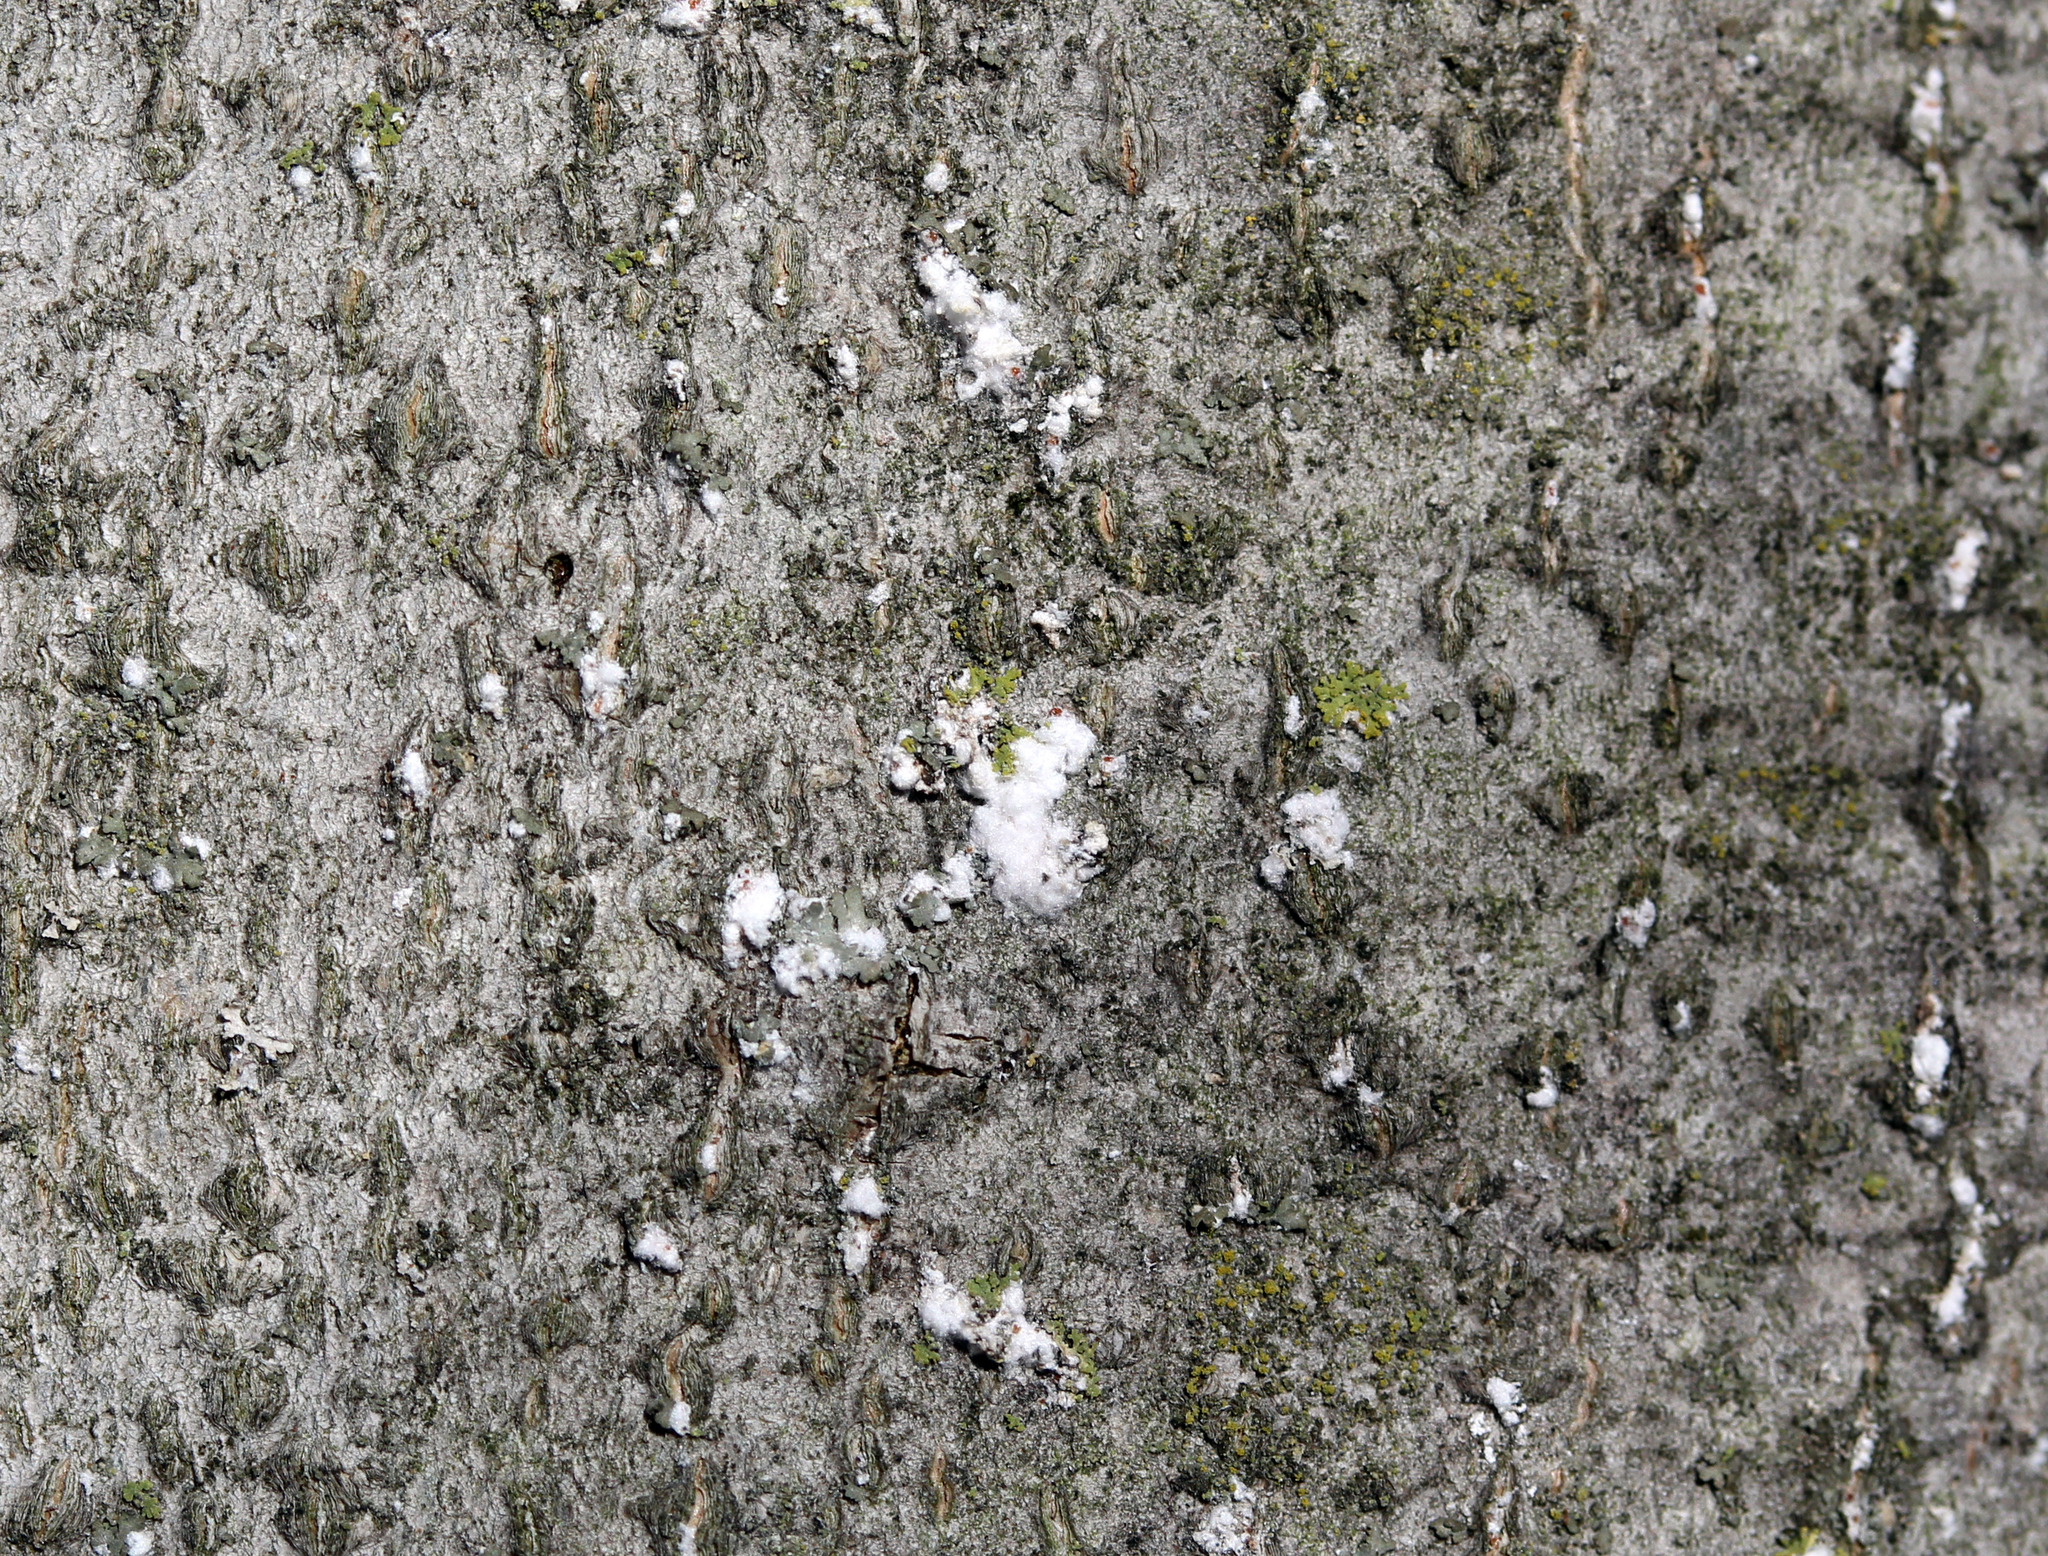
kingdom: Animalia
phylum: Arthropoda
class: Insecta
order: Hemiptera
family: Eriococcidae
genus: Cryptococcus
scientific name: Cryptococcus fagisuga
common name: Beech scale
